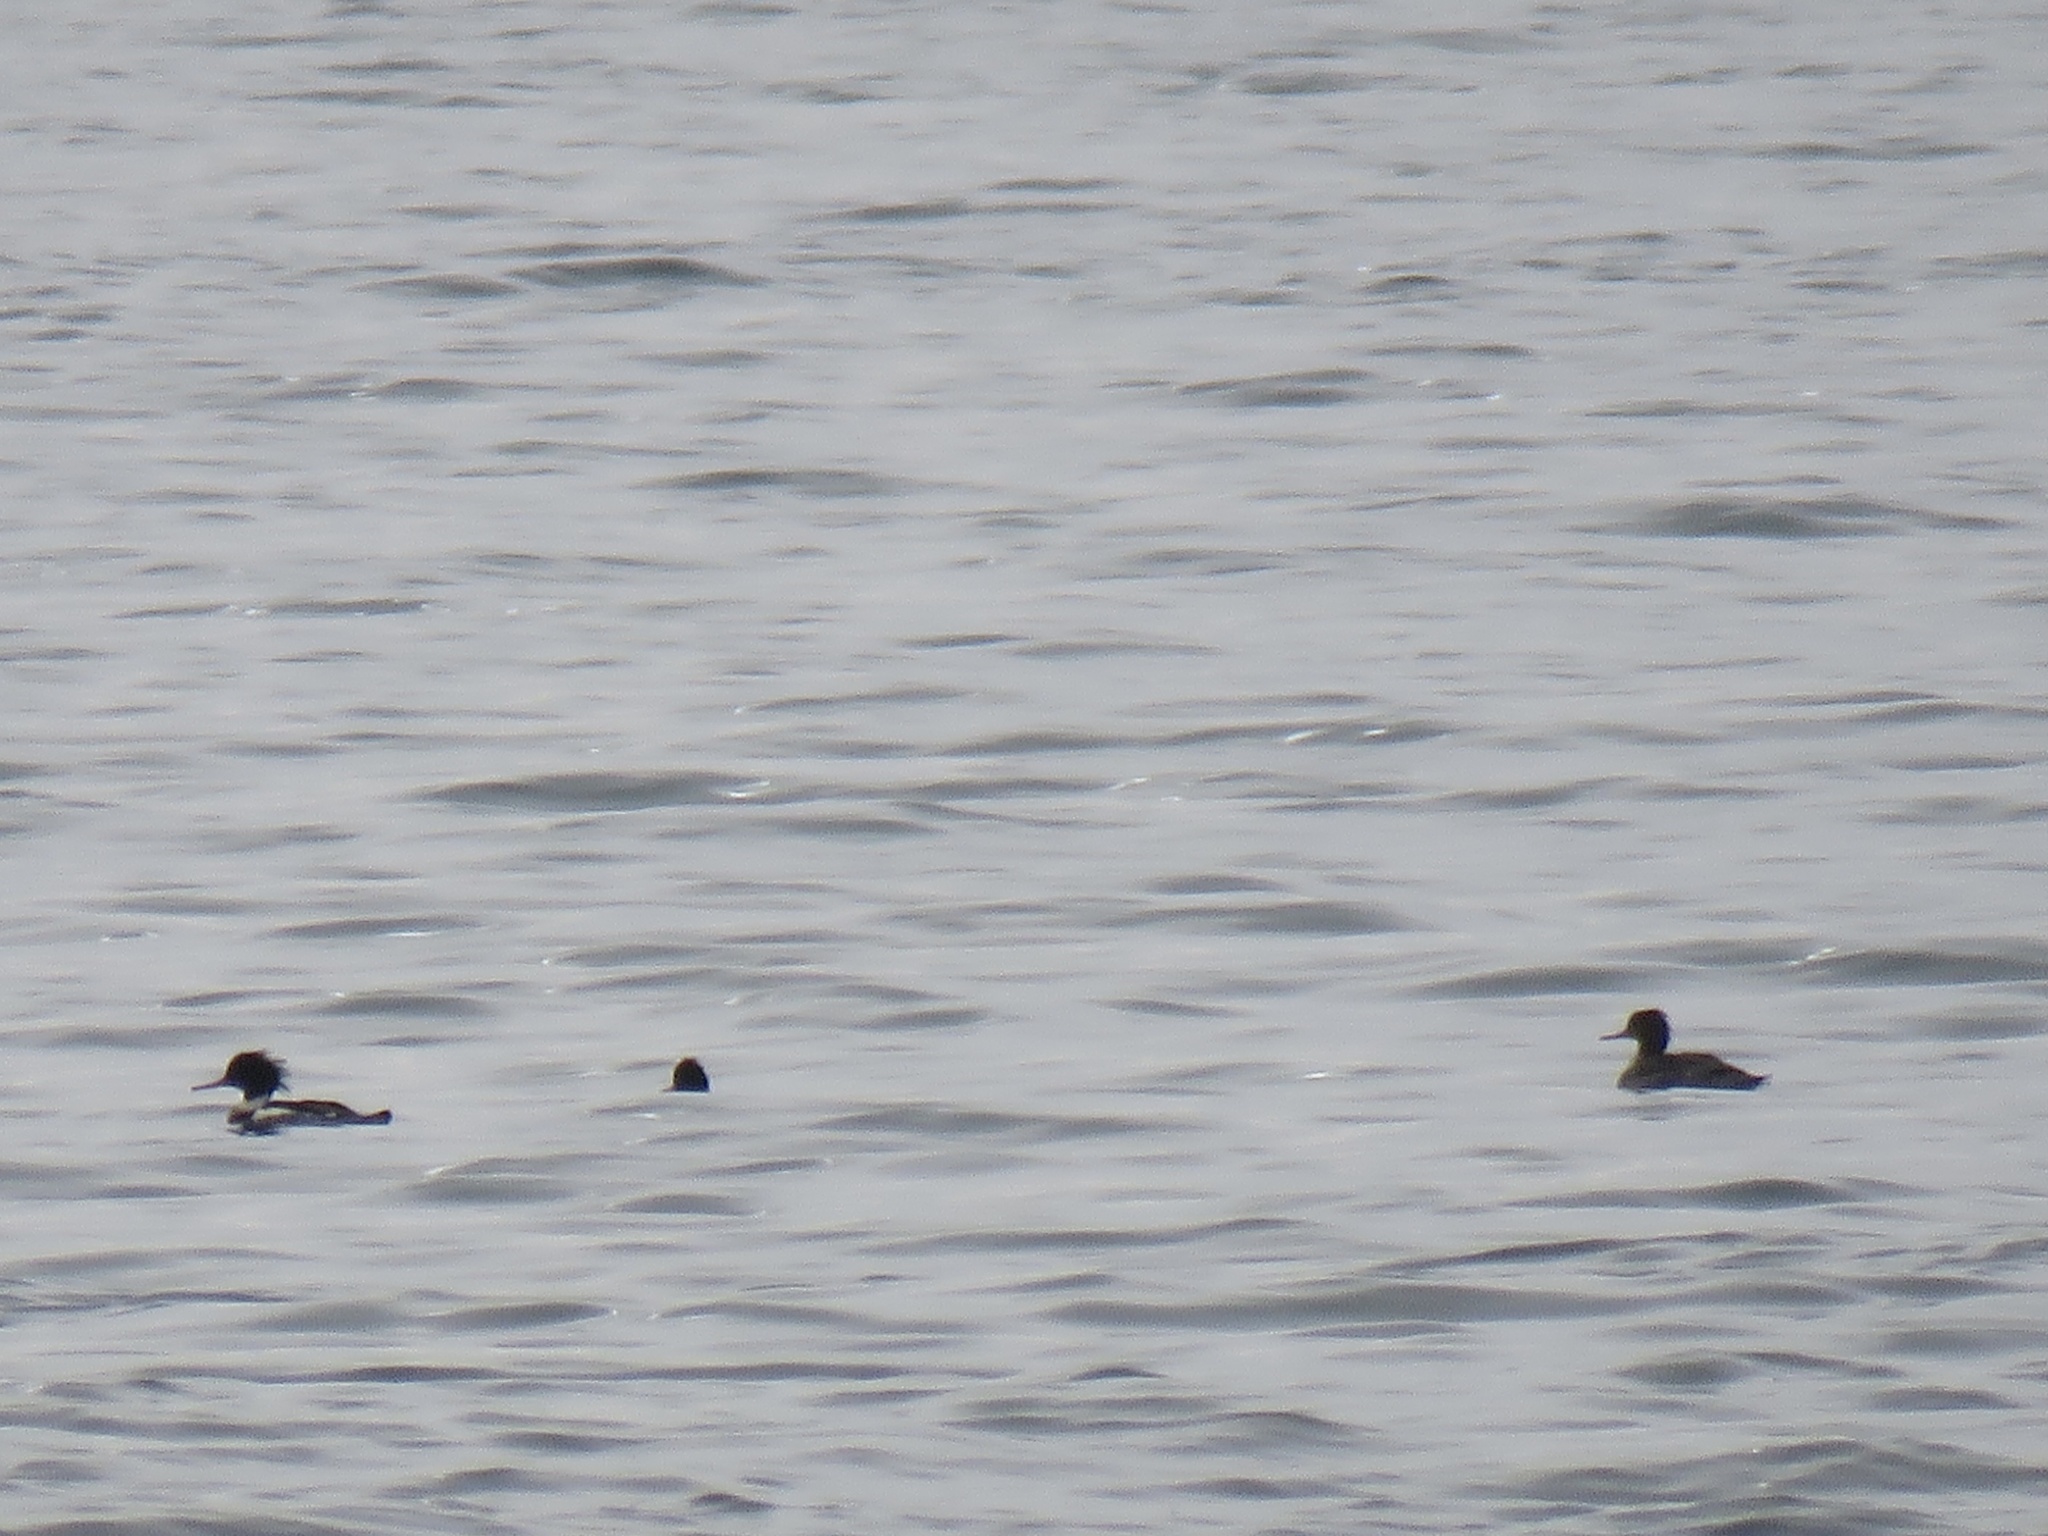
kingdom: Animalia
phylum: Chordata
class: Aves
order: Anseriformes
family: Anatidae
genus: Mergus
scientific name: Mergus serrator
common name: Red-breasted merganser
